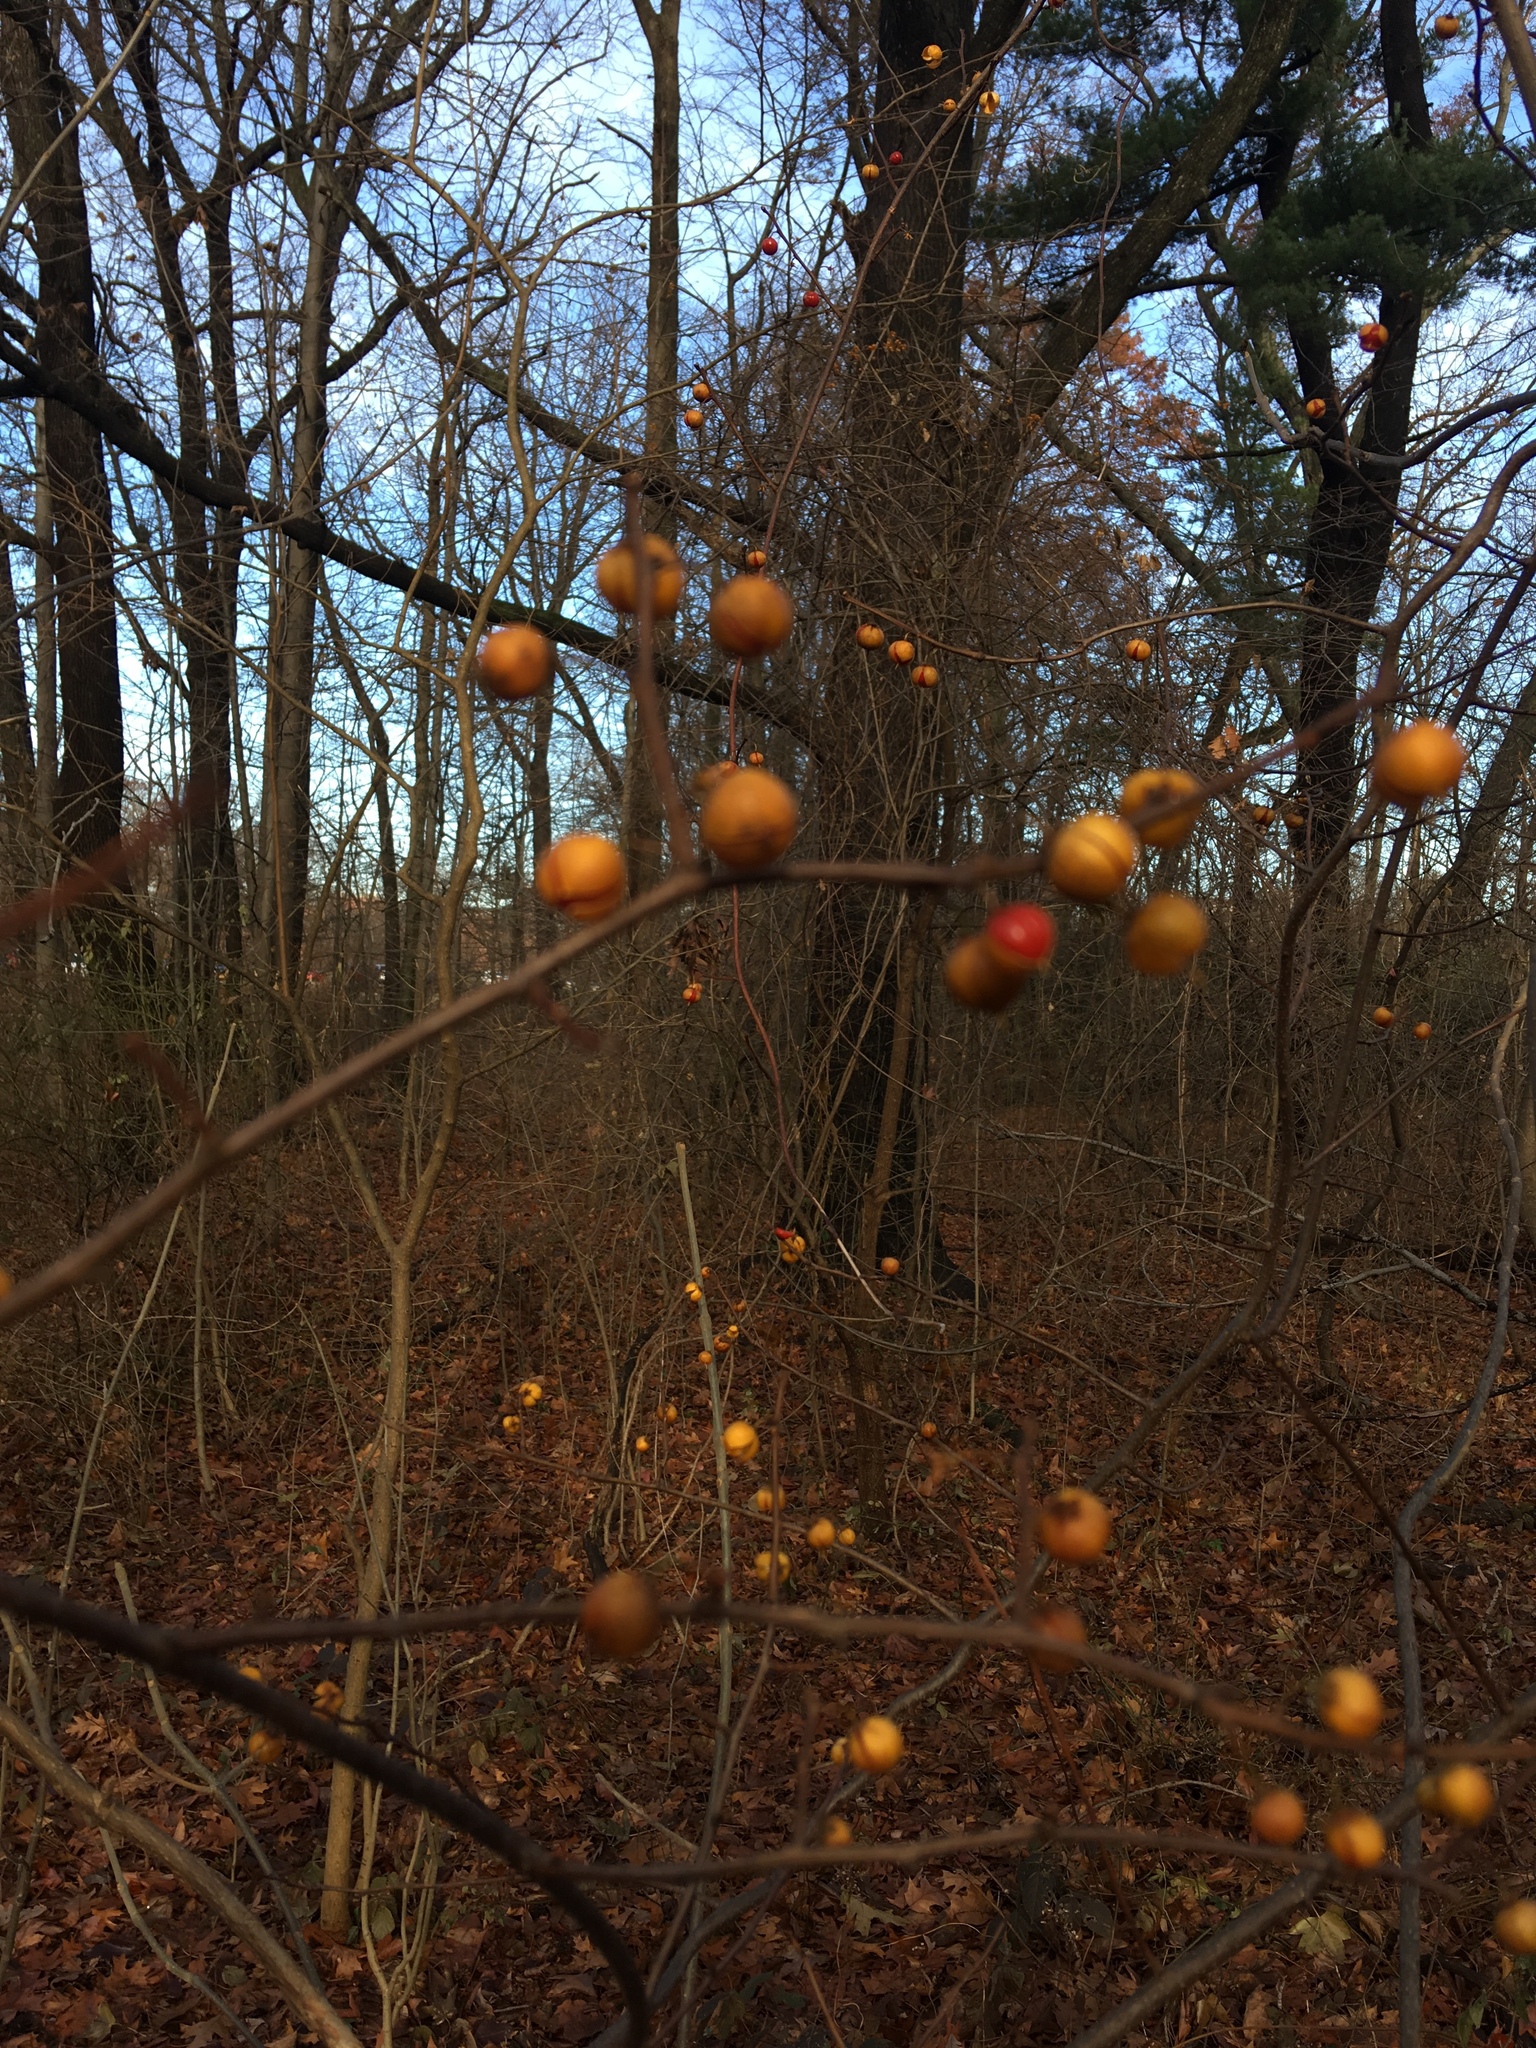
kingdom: Plantae
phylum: Tracheophyta
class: Magnoliopsida
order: Celastrales
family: Celastraceae
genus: Celastrus
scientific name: Celastrus orbiculatus
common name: Oriental bittersweet
